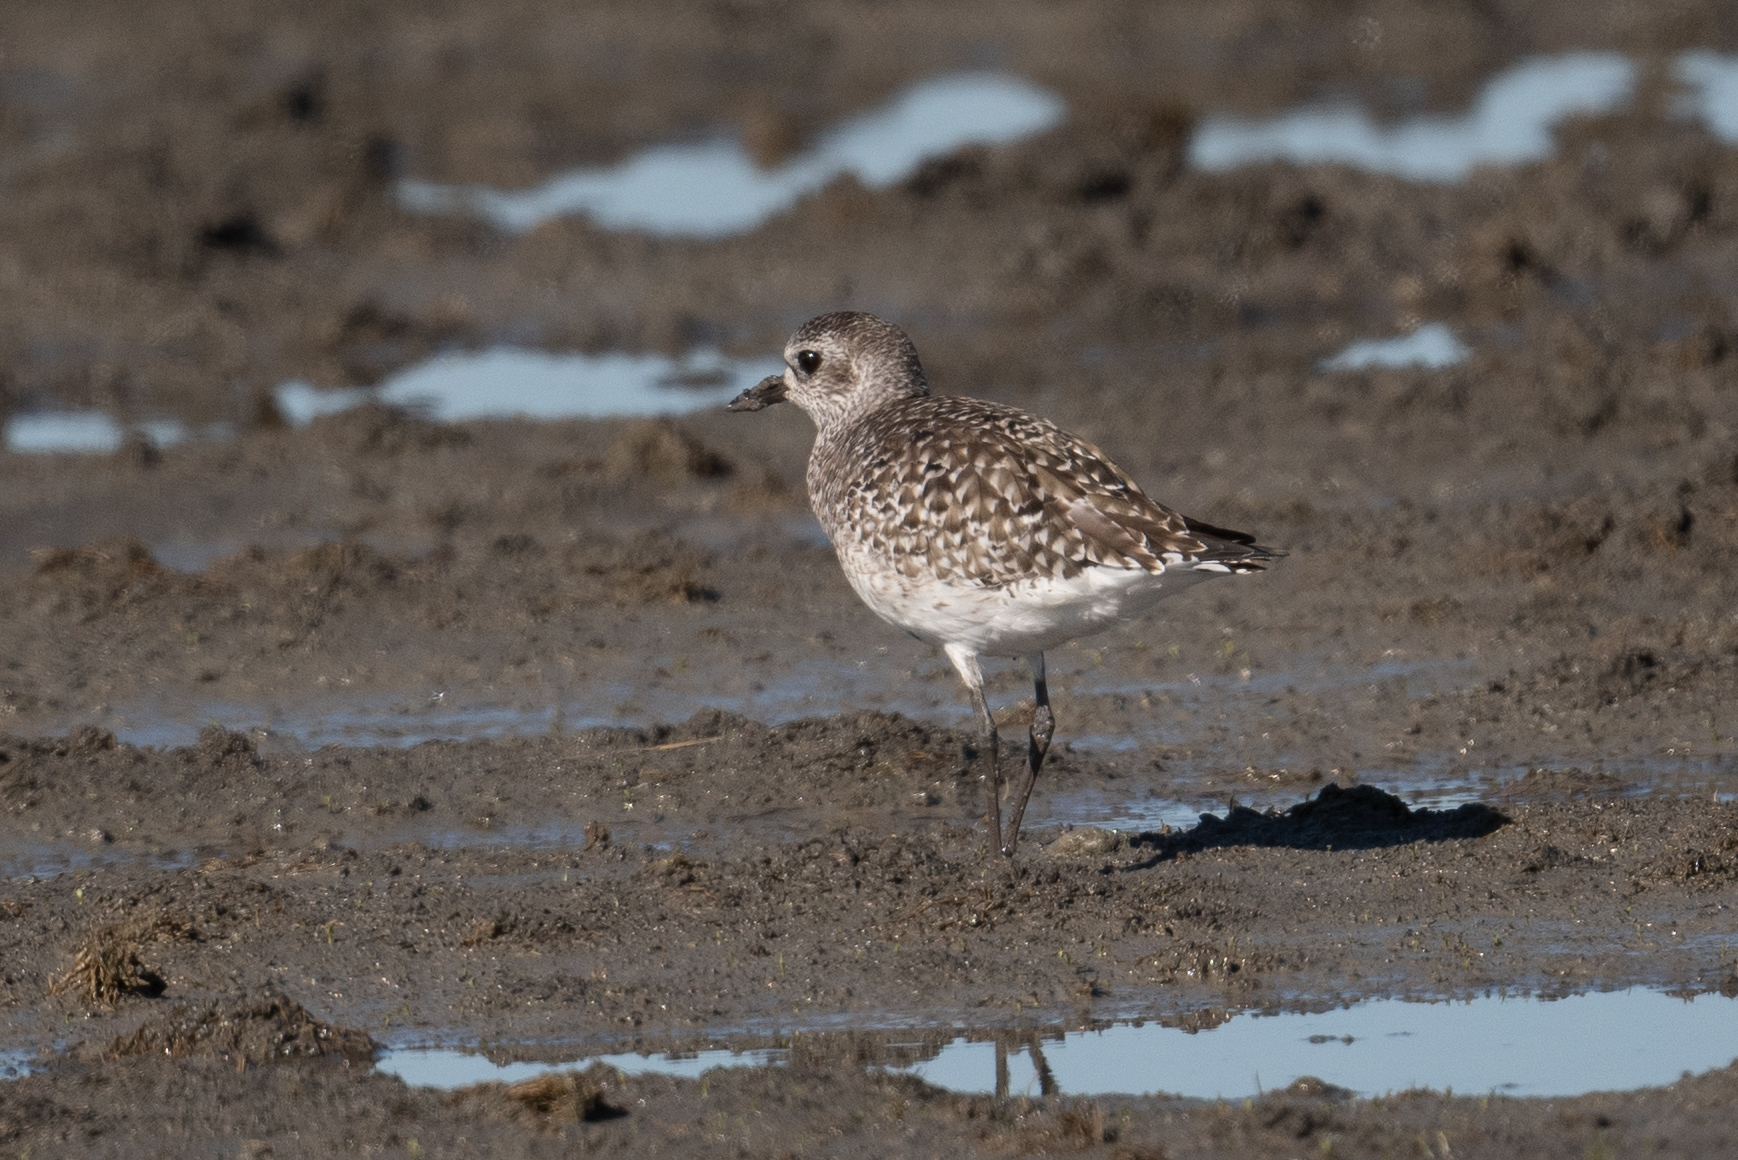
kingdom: Animalia
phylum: Chordata
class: Aves
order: Charadriiformes
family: Charadriidae
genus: Pluvialis
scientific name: Pluvialis squatarola
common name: Grey plover
